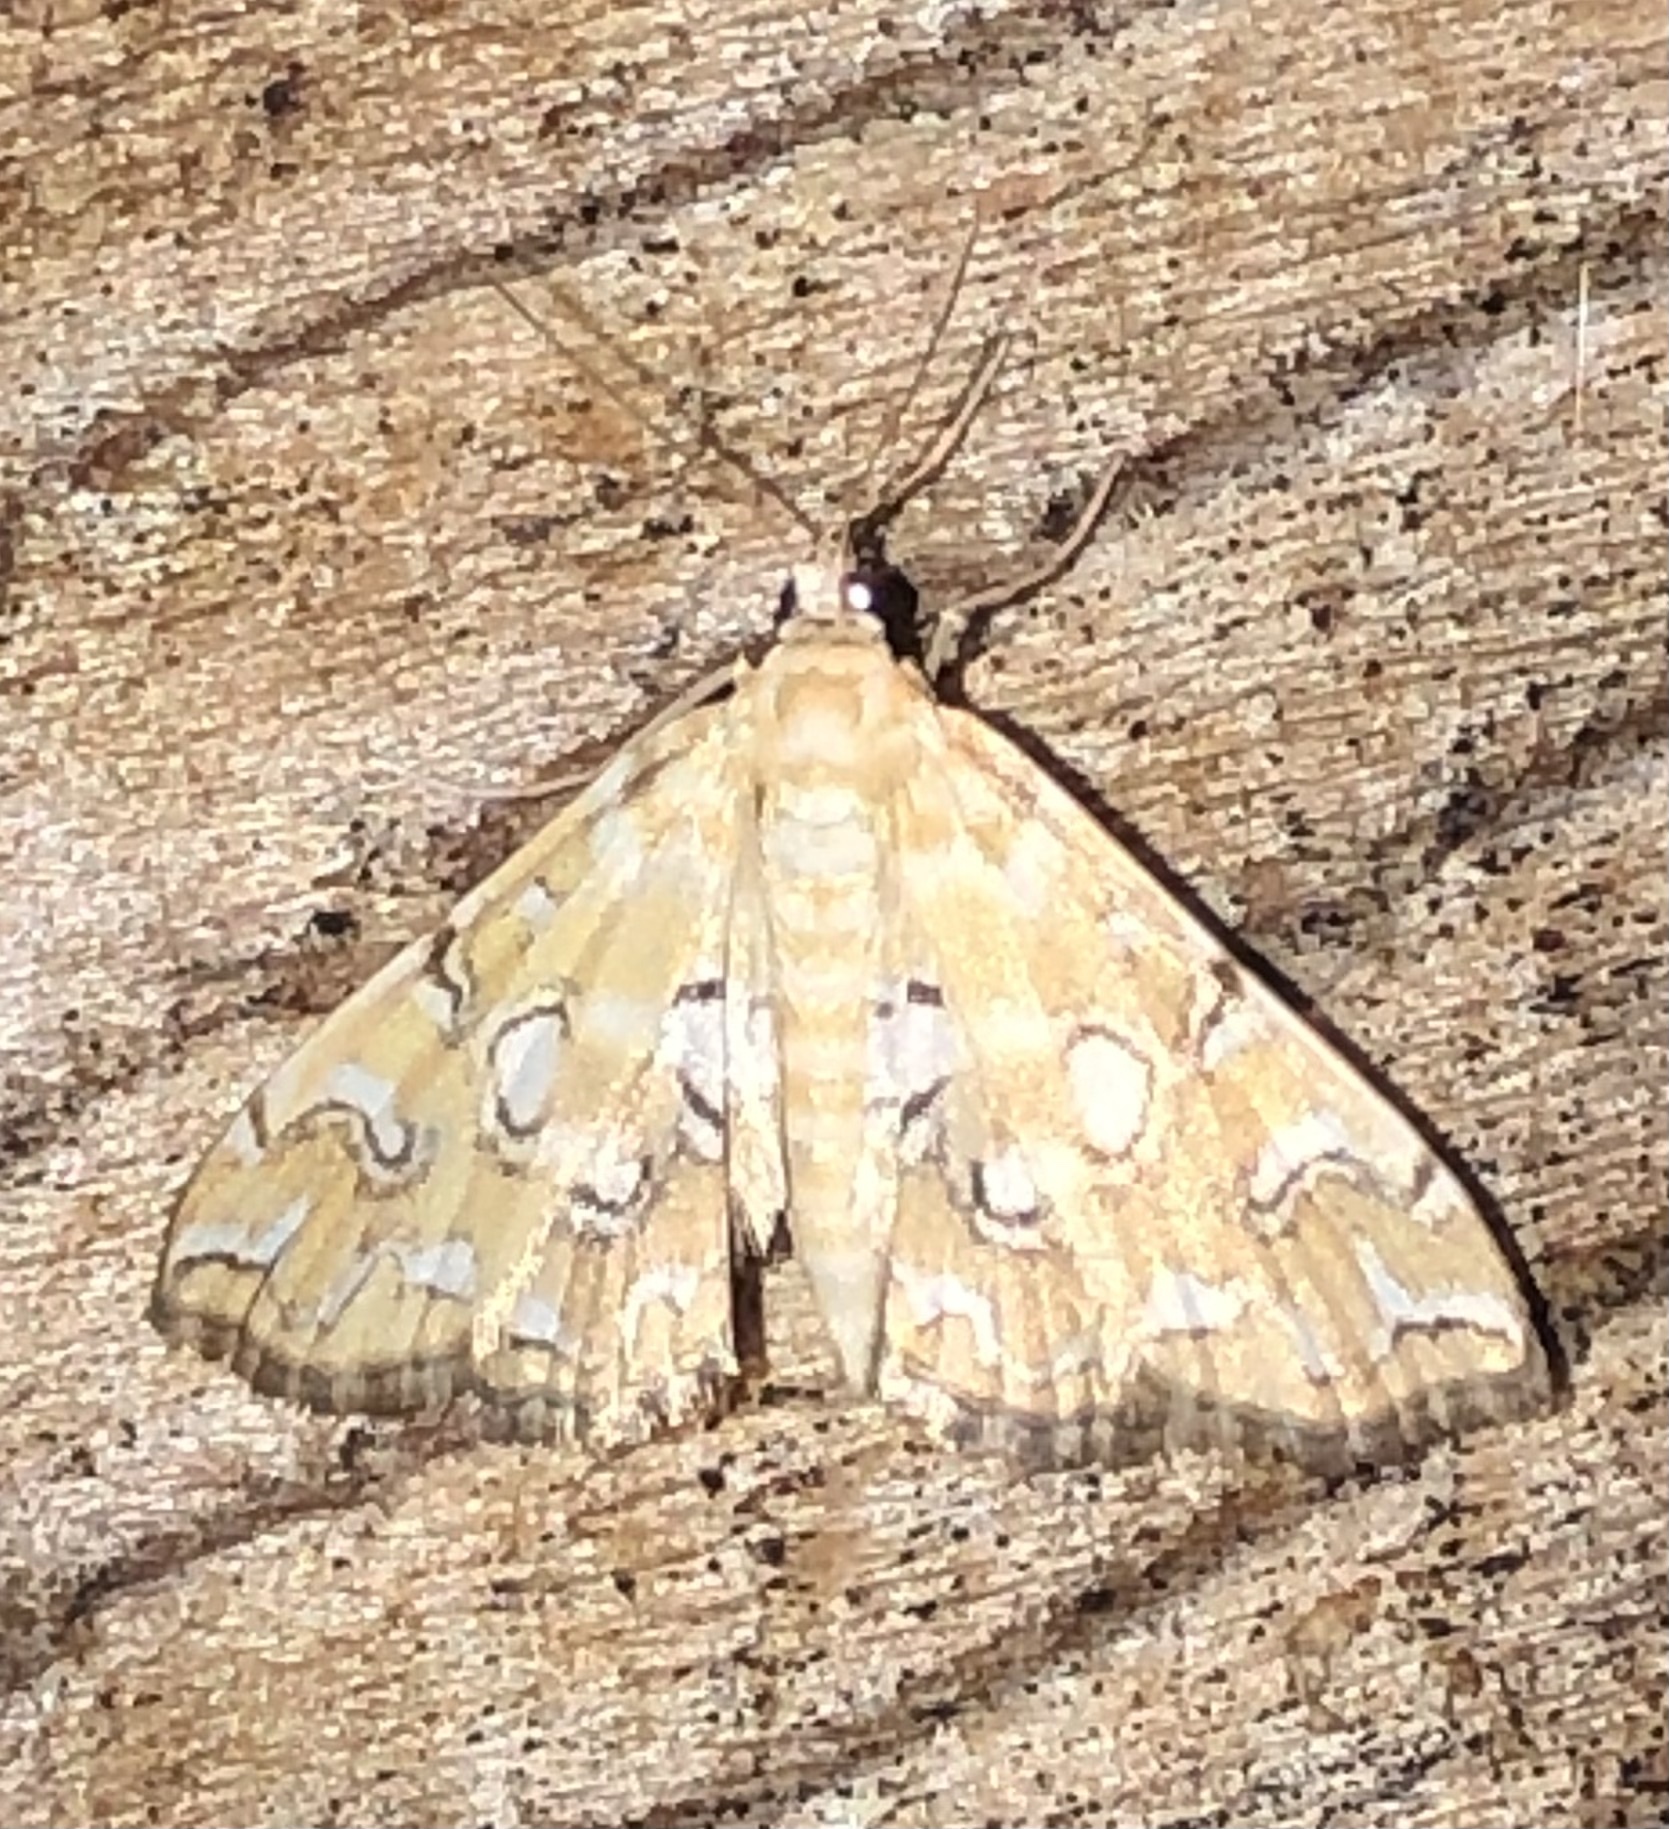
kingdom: Animalia
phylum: Arthropoda
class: Insecta
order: Lepidoptera
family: Crambidae
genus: Elophila
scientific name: Elophila icciusalis
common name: Pondside pyralid moth
